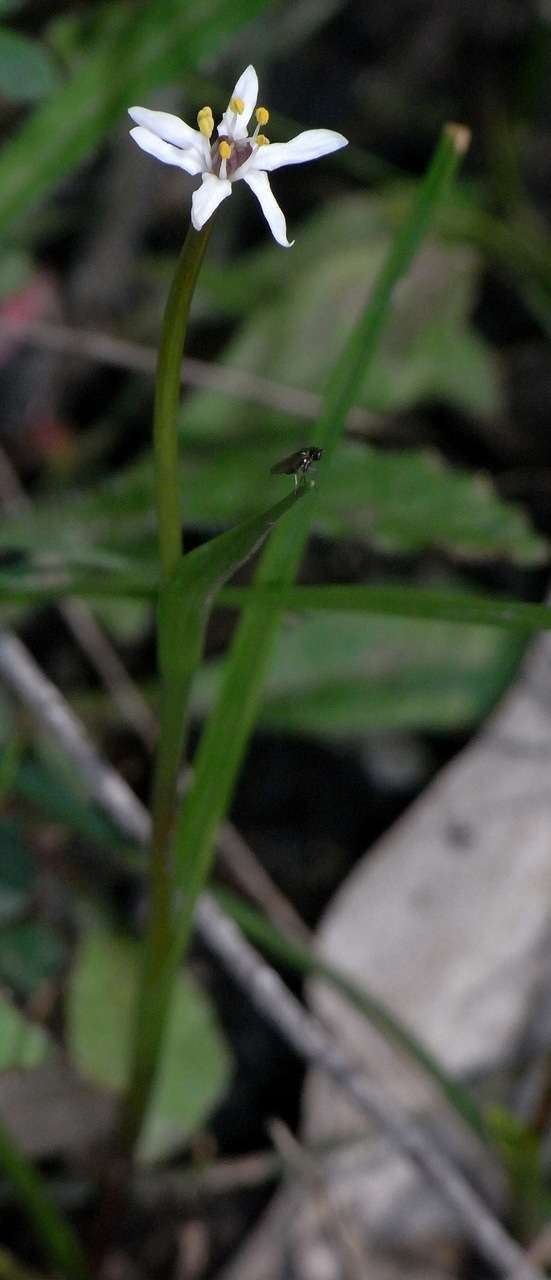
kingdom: Plantae
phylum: Tracheophyta
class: Liliopsida
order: Liliales
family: Colchicaceae
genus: Wurmbea
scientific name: Wurmbea uniflora
